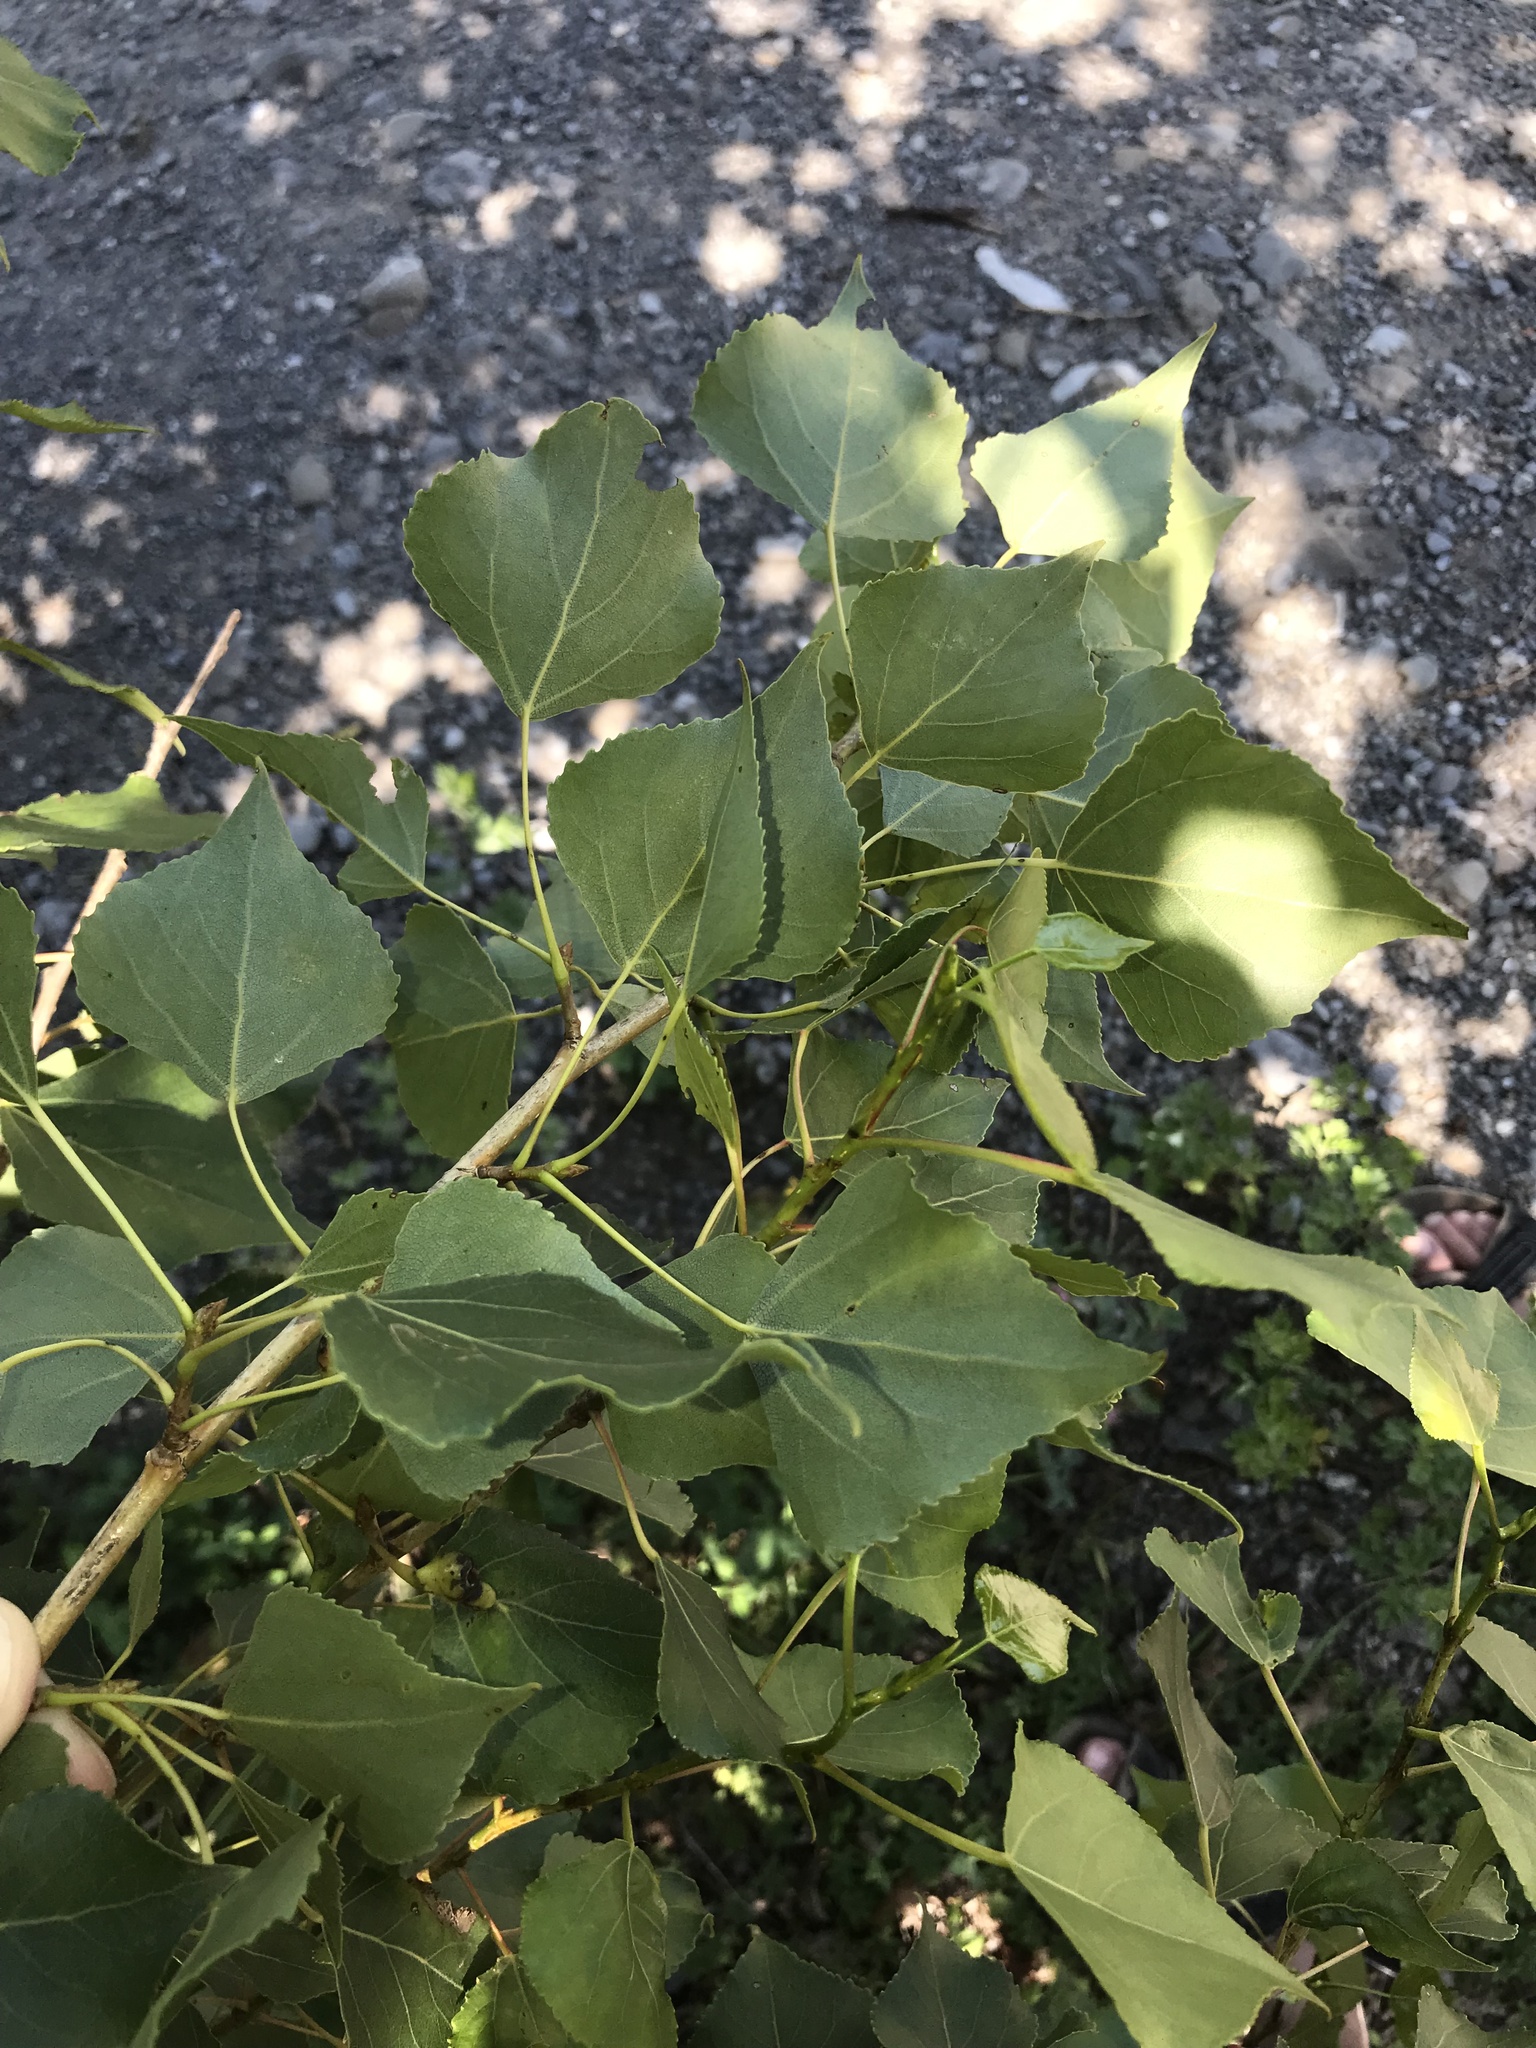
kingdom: Plantae
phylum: Tracheophyta
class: Magnoliopsida
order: Malpighiales
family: Salicaceae
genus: Populus
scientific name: Populus nigra
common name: Black poplar
